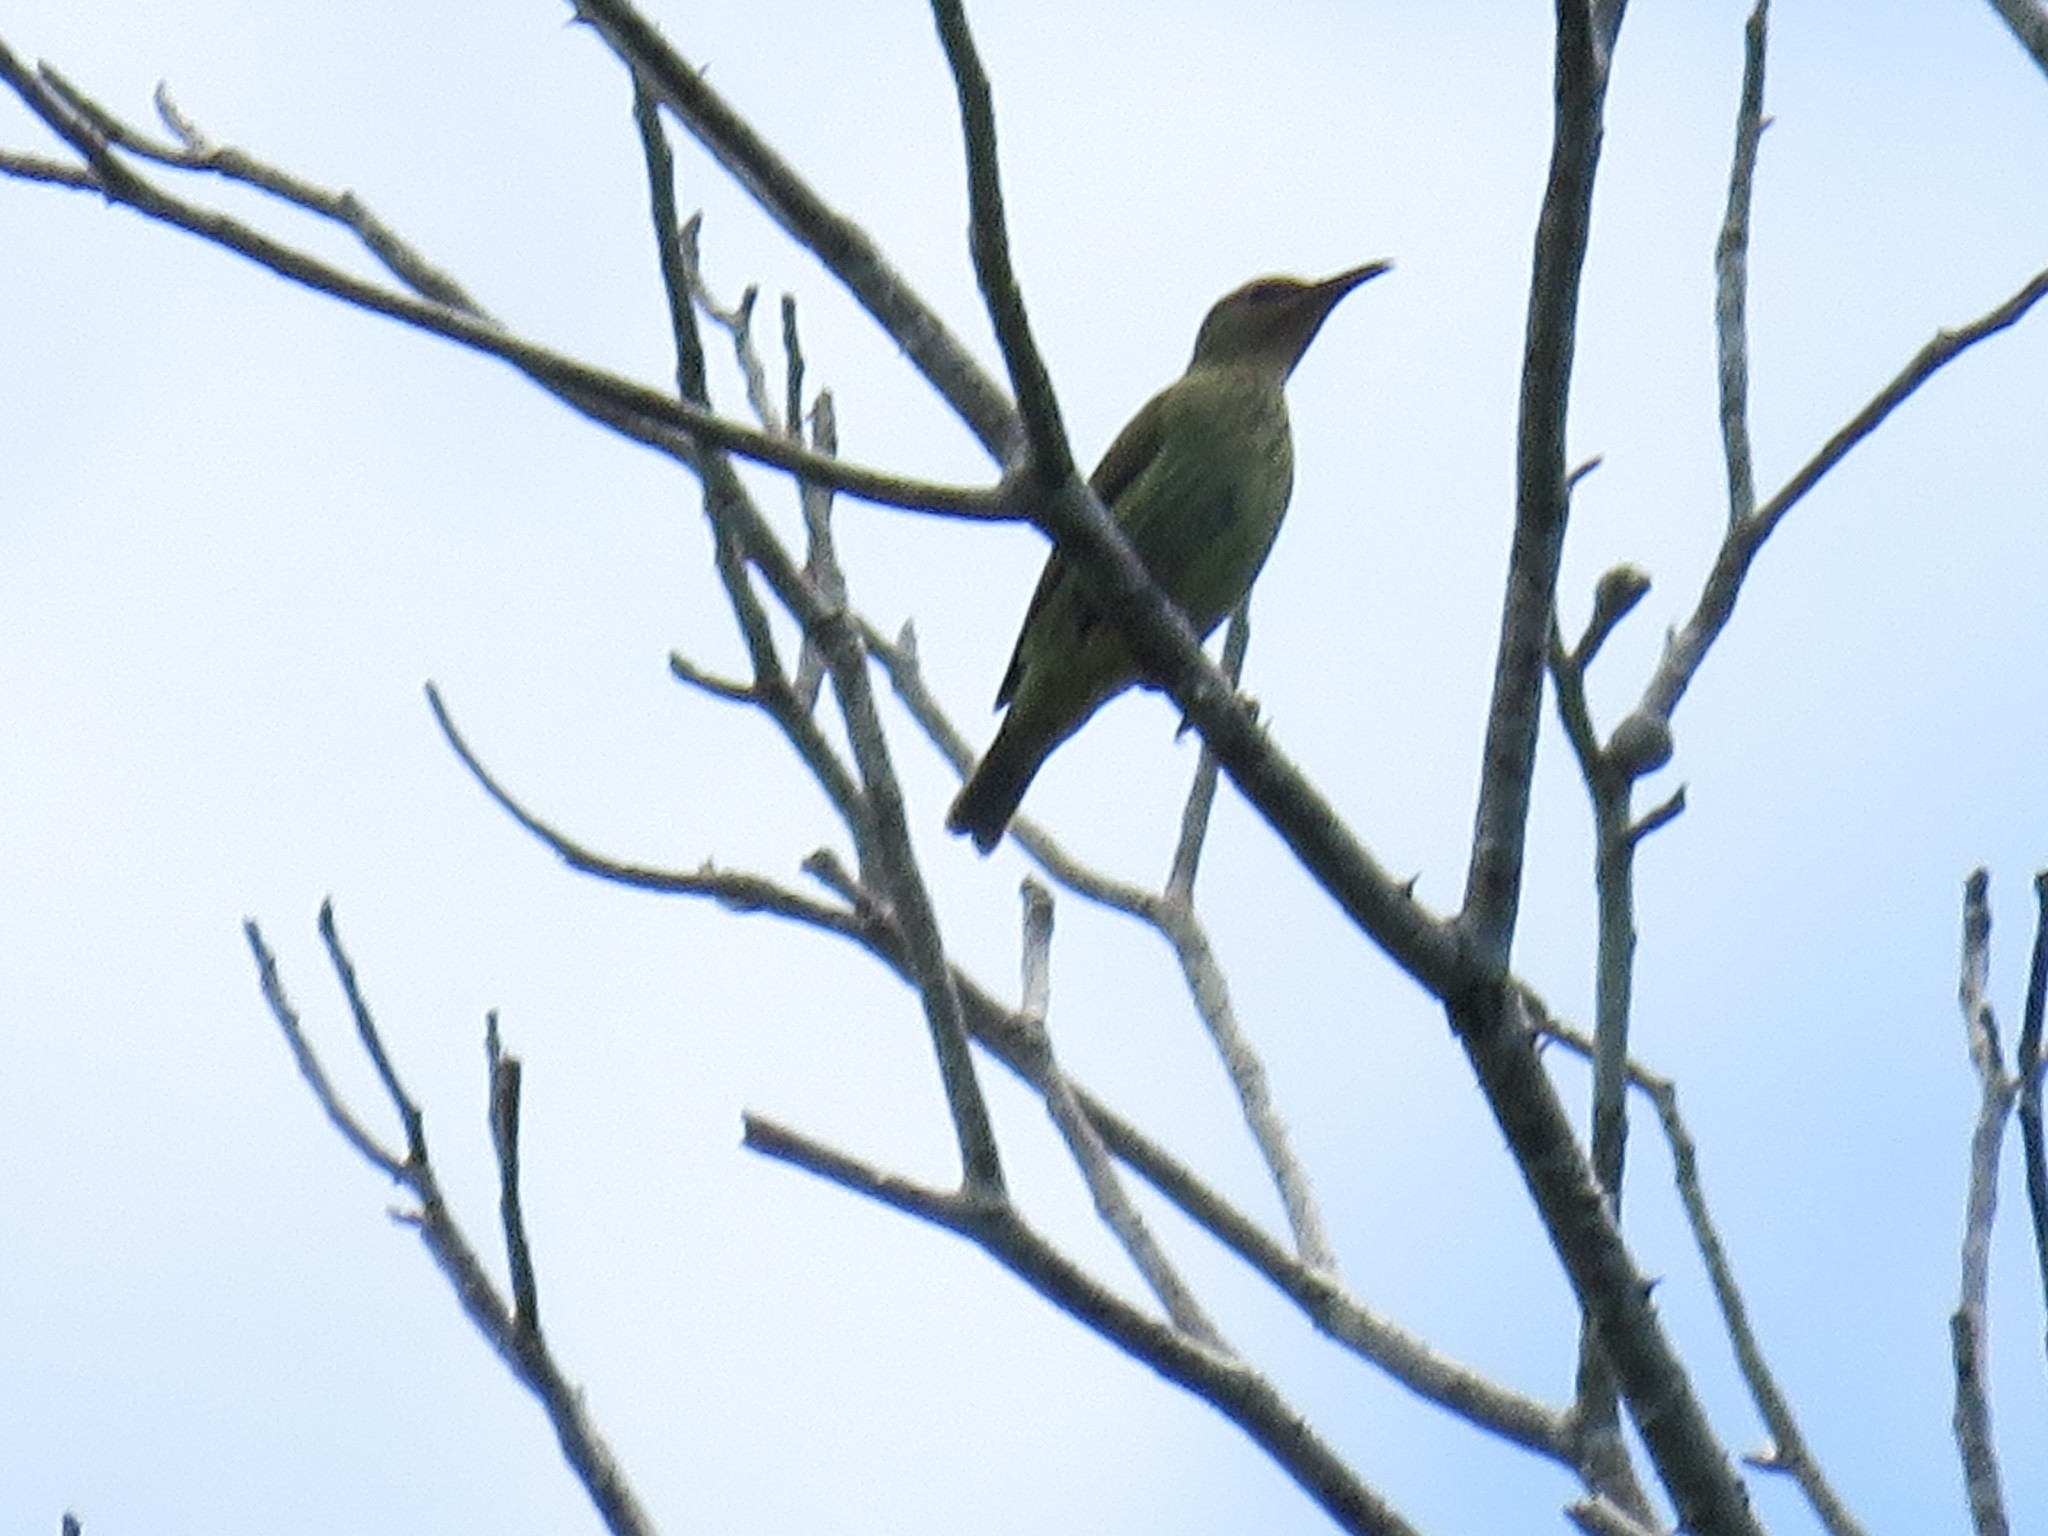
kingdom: Animalia
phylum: Chordata
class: Aves
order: Passeriformes
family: Thraupidae
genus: Cyanerpes
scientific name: Cyanerpes cyaneus
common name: Red-legged honeycreeper
